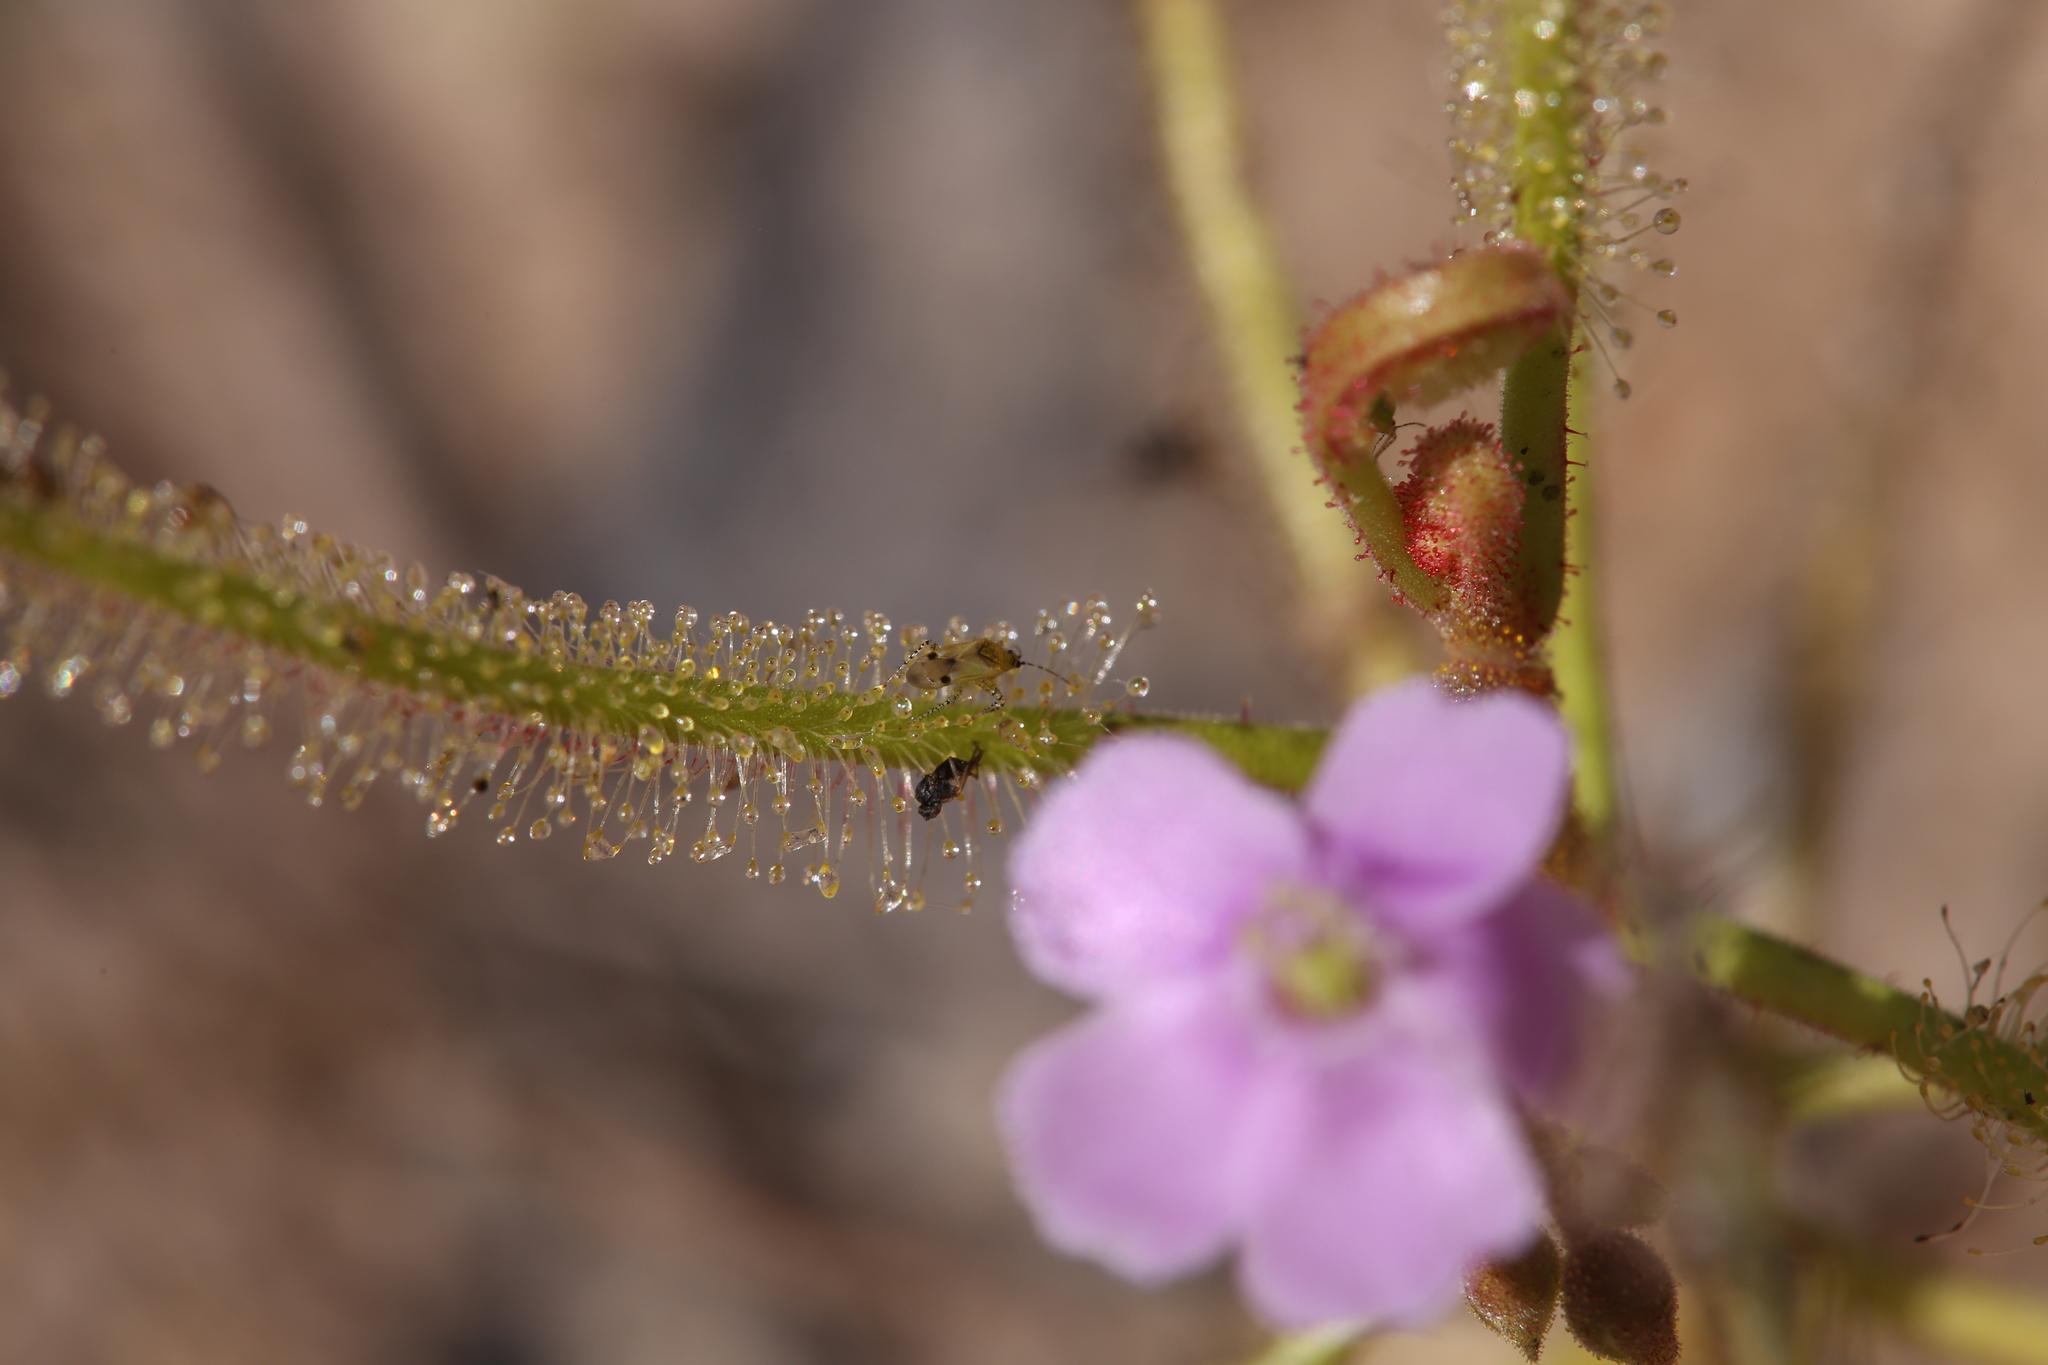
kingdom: Plantae
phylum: Tracheophyta
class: Magnoliopsida
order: Caryophyllales
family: Droseraceae
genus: Drosera
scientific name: Drosera indica
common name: Indian sundew
